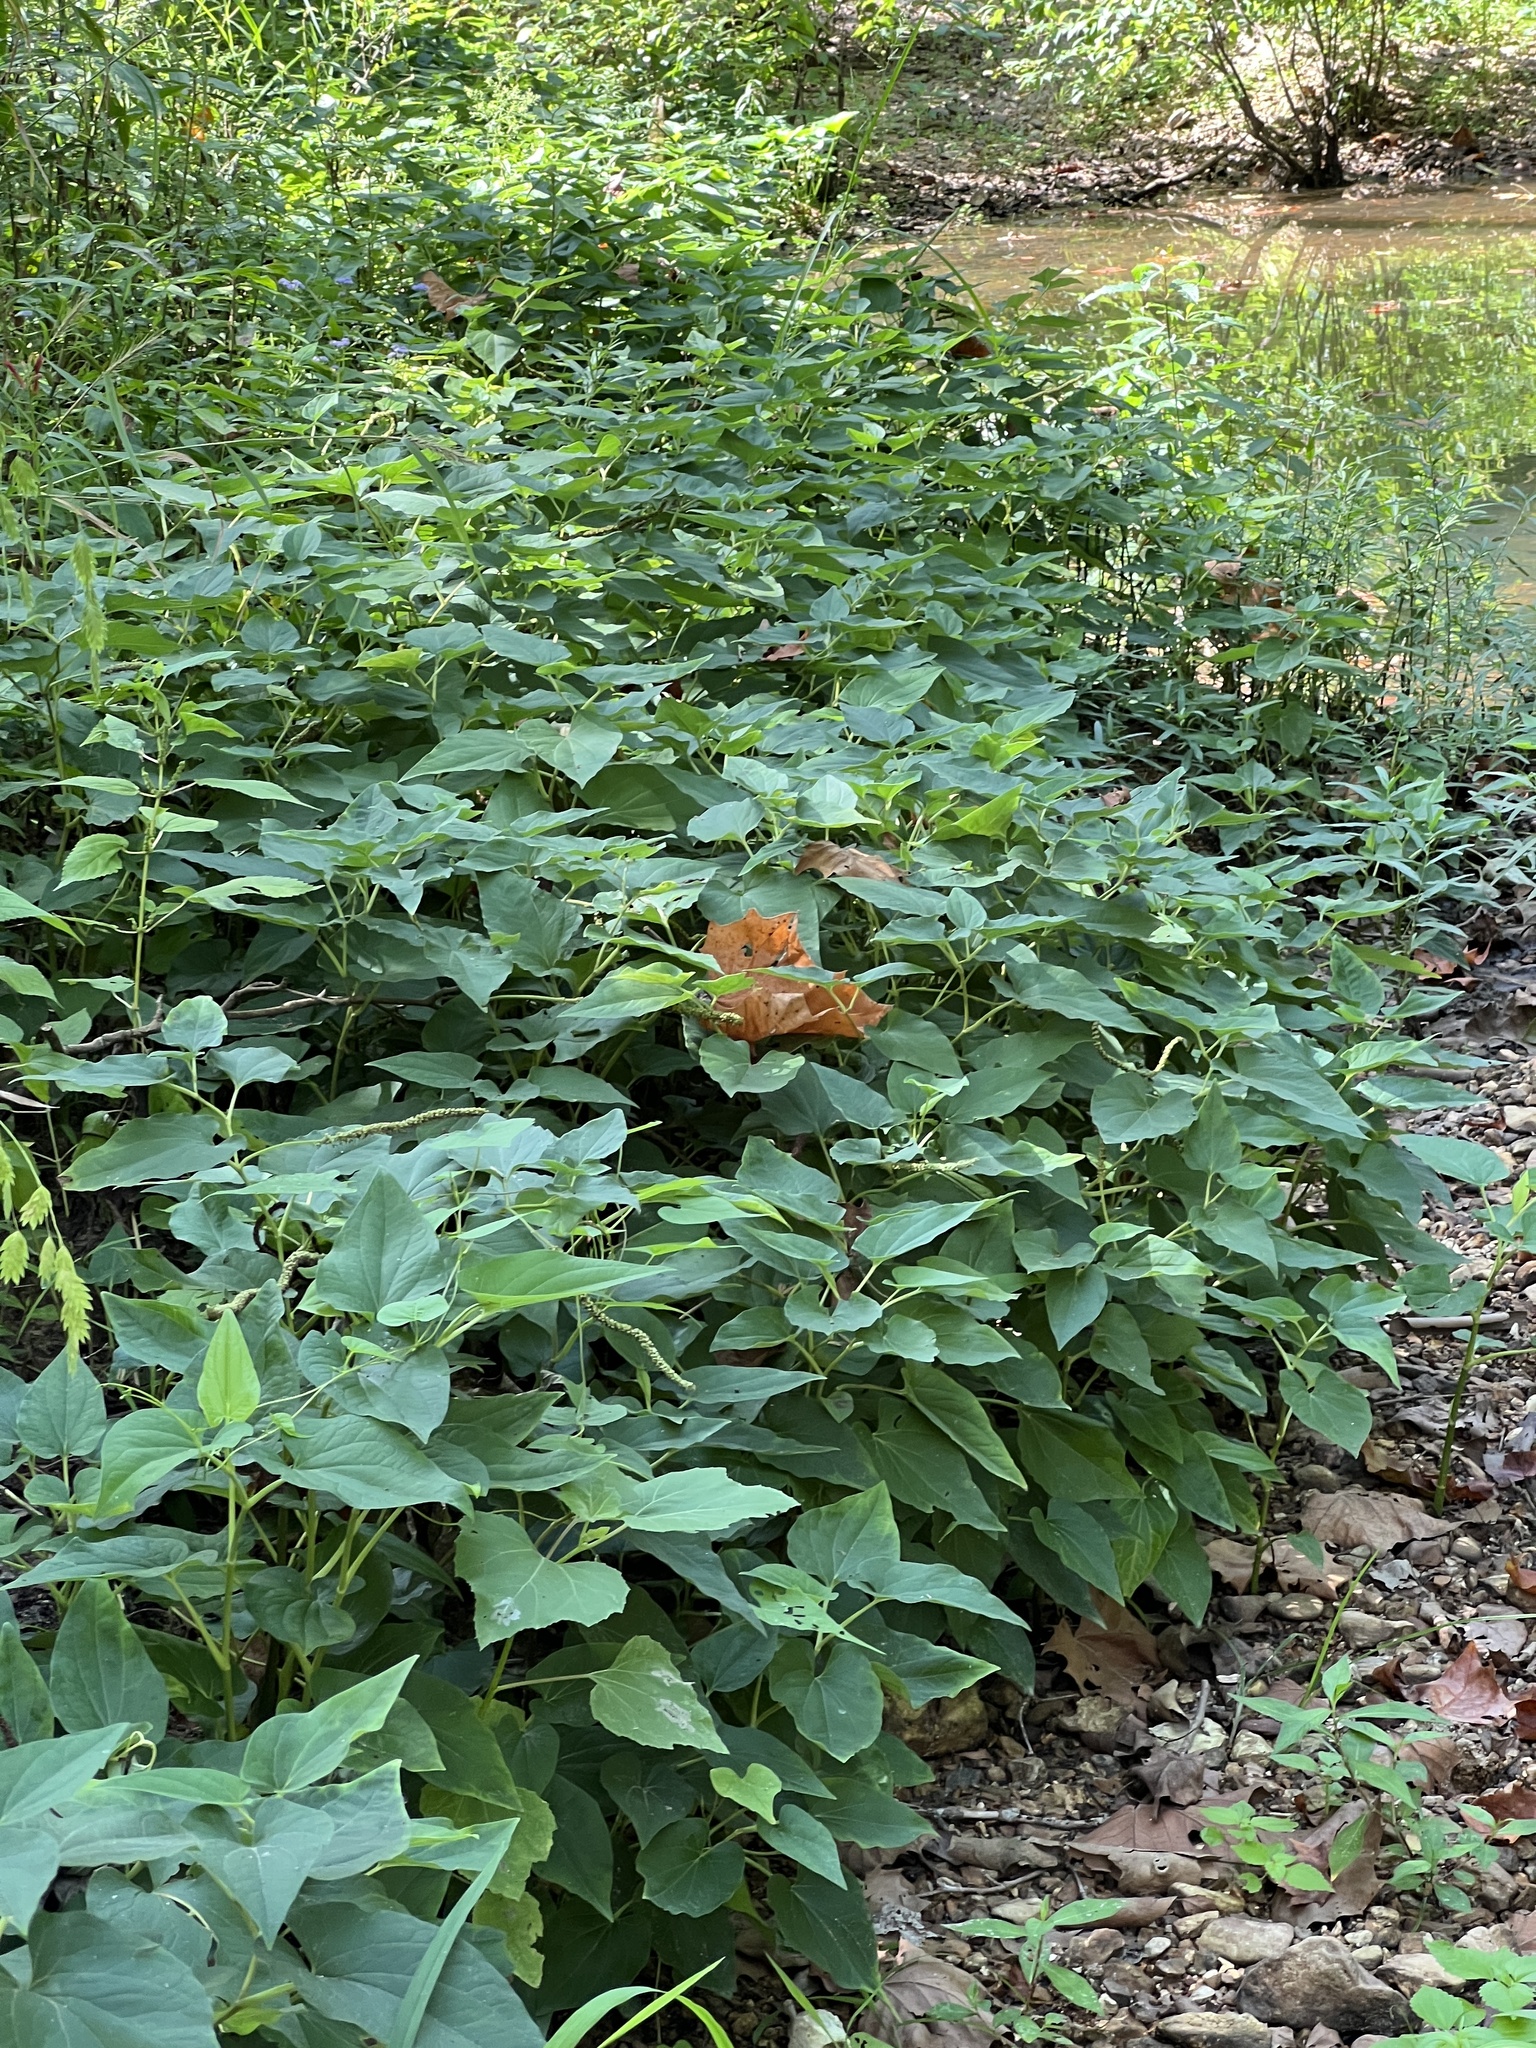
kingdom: Plantae
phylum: Tracheophyta
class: Magnoliopsida
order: Piperales
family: Saururaceae
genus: Saururus
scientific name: Saururus cernuus
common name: Lizard's-tail
